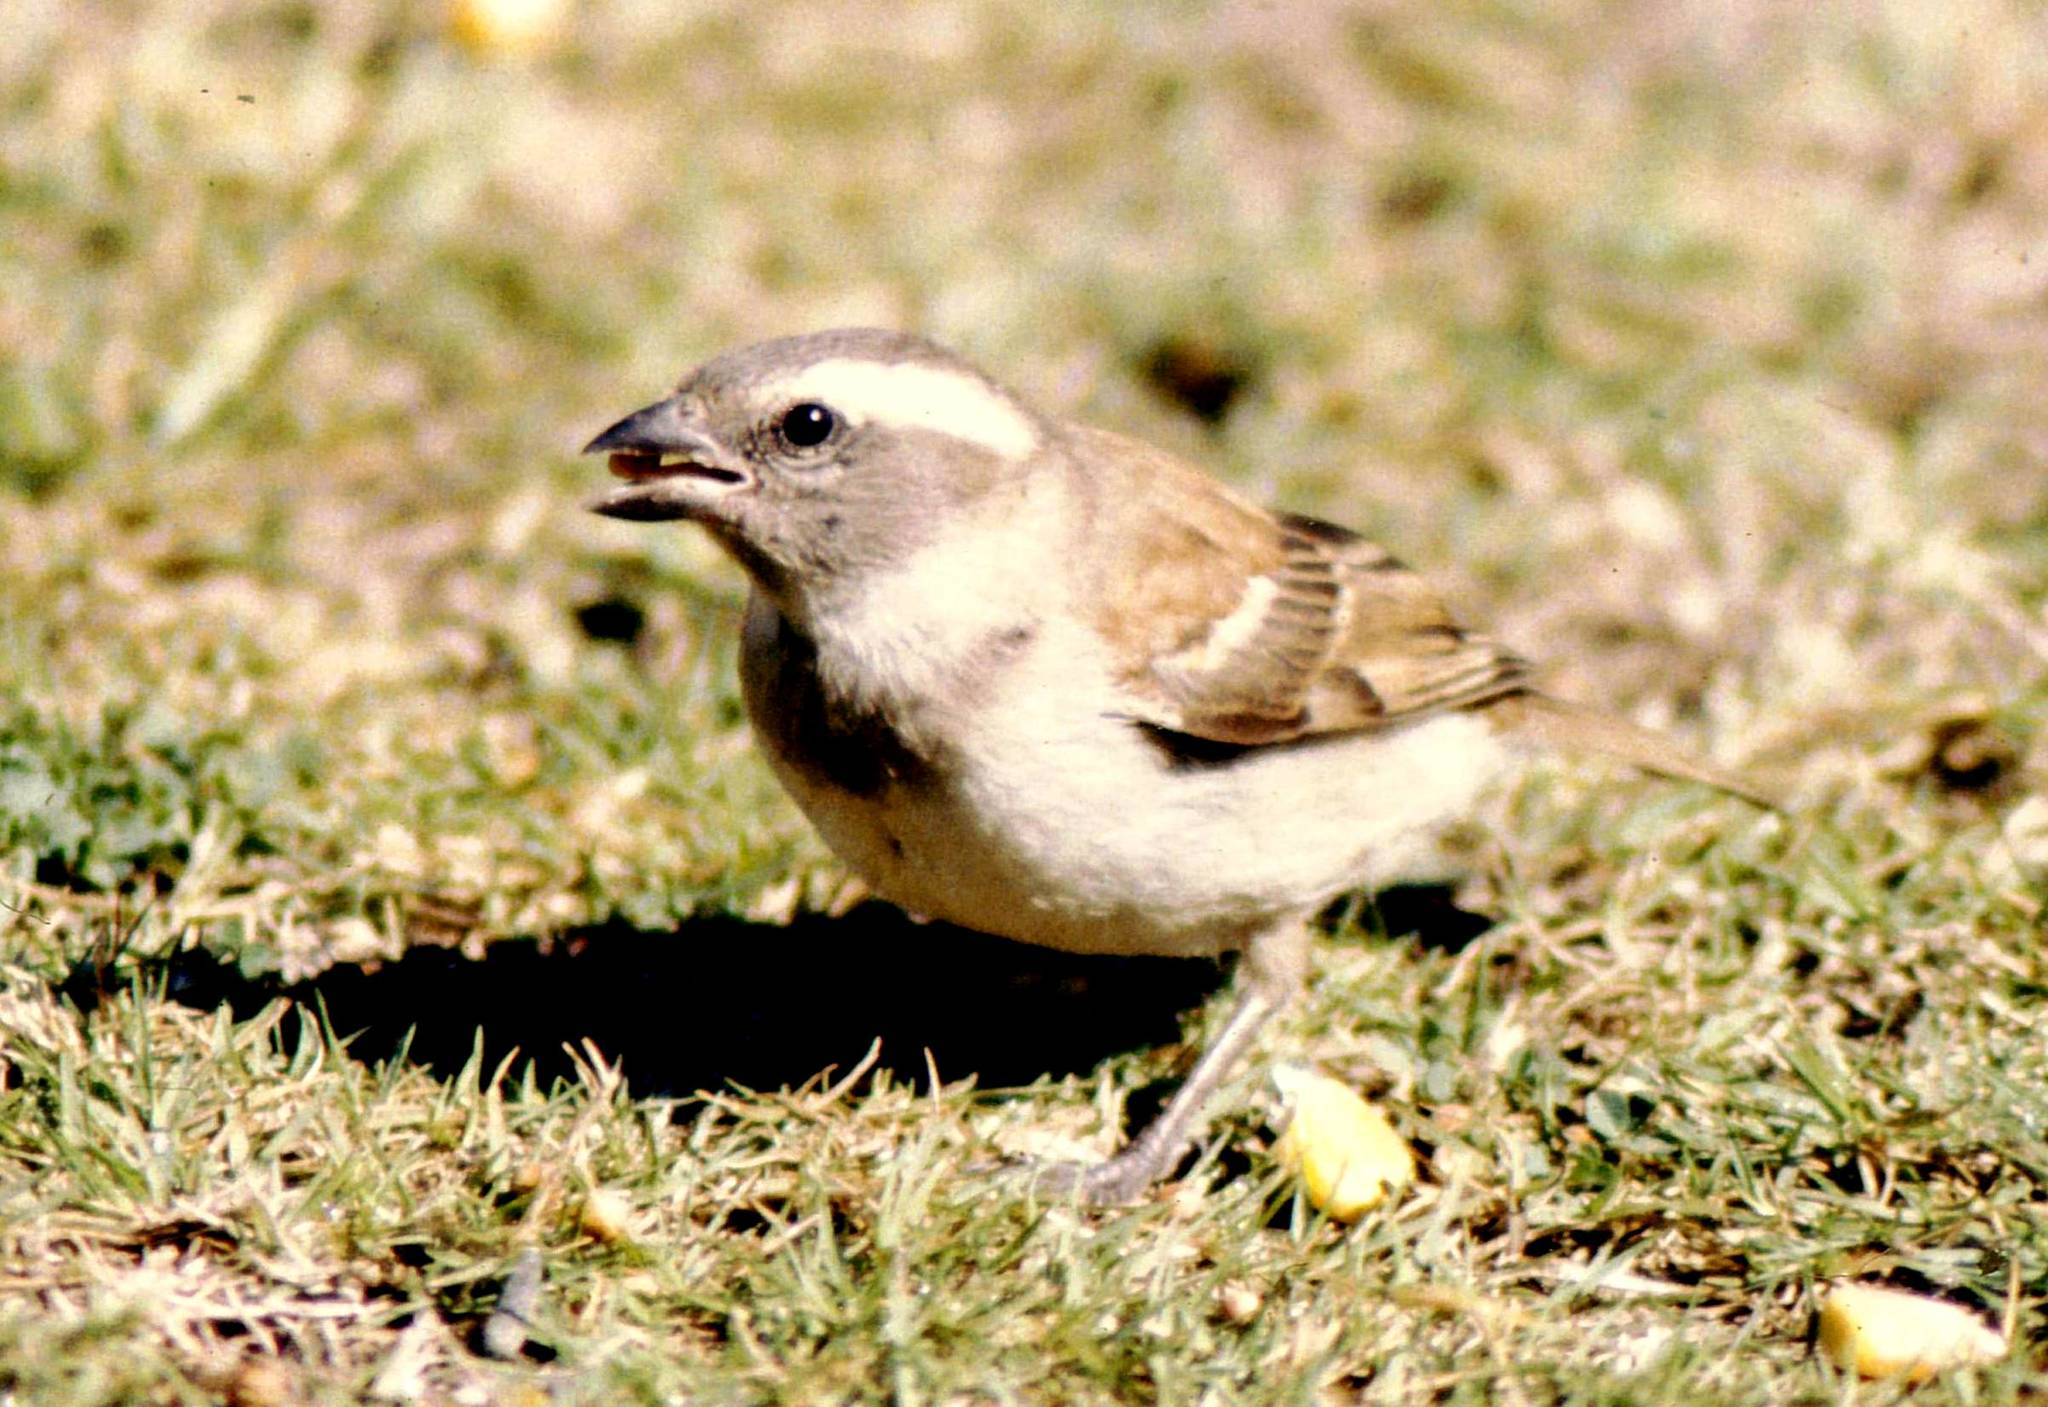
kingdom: Animalia
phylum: Chordata
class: Aves
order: Passeriformes
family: Passeridae
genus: Passer
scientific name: Passer melanurus
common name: Cape sparrow
